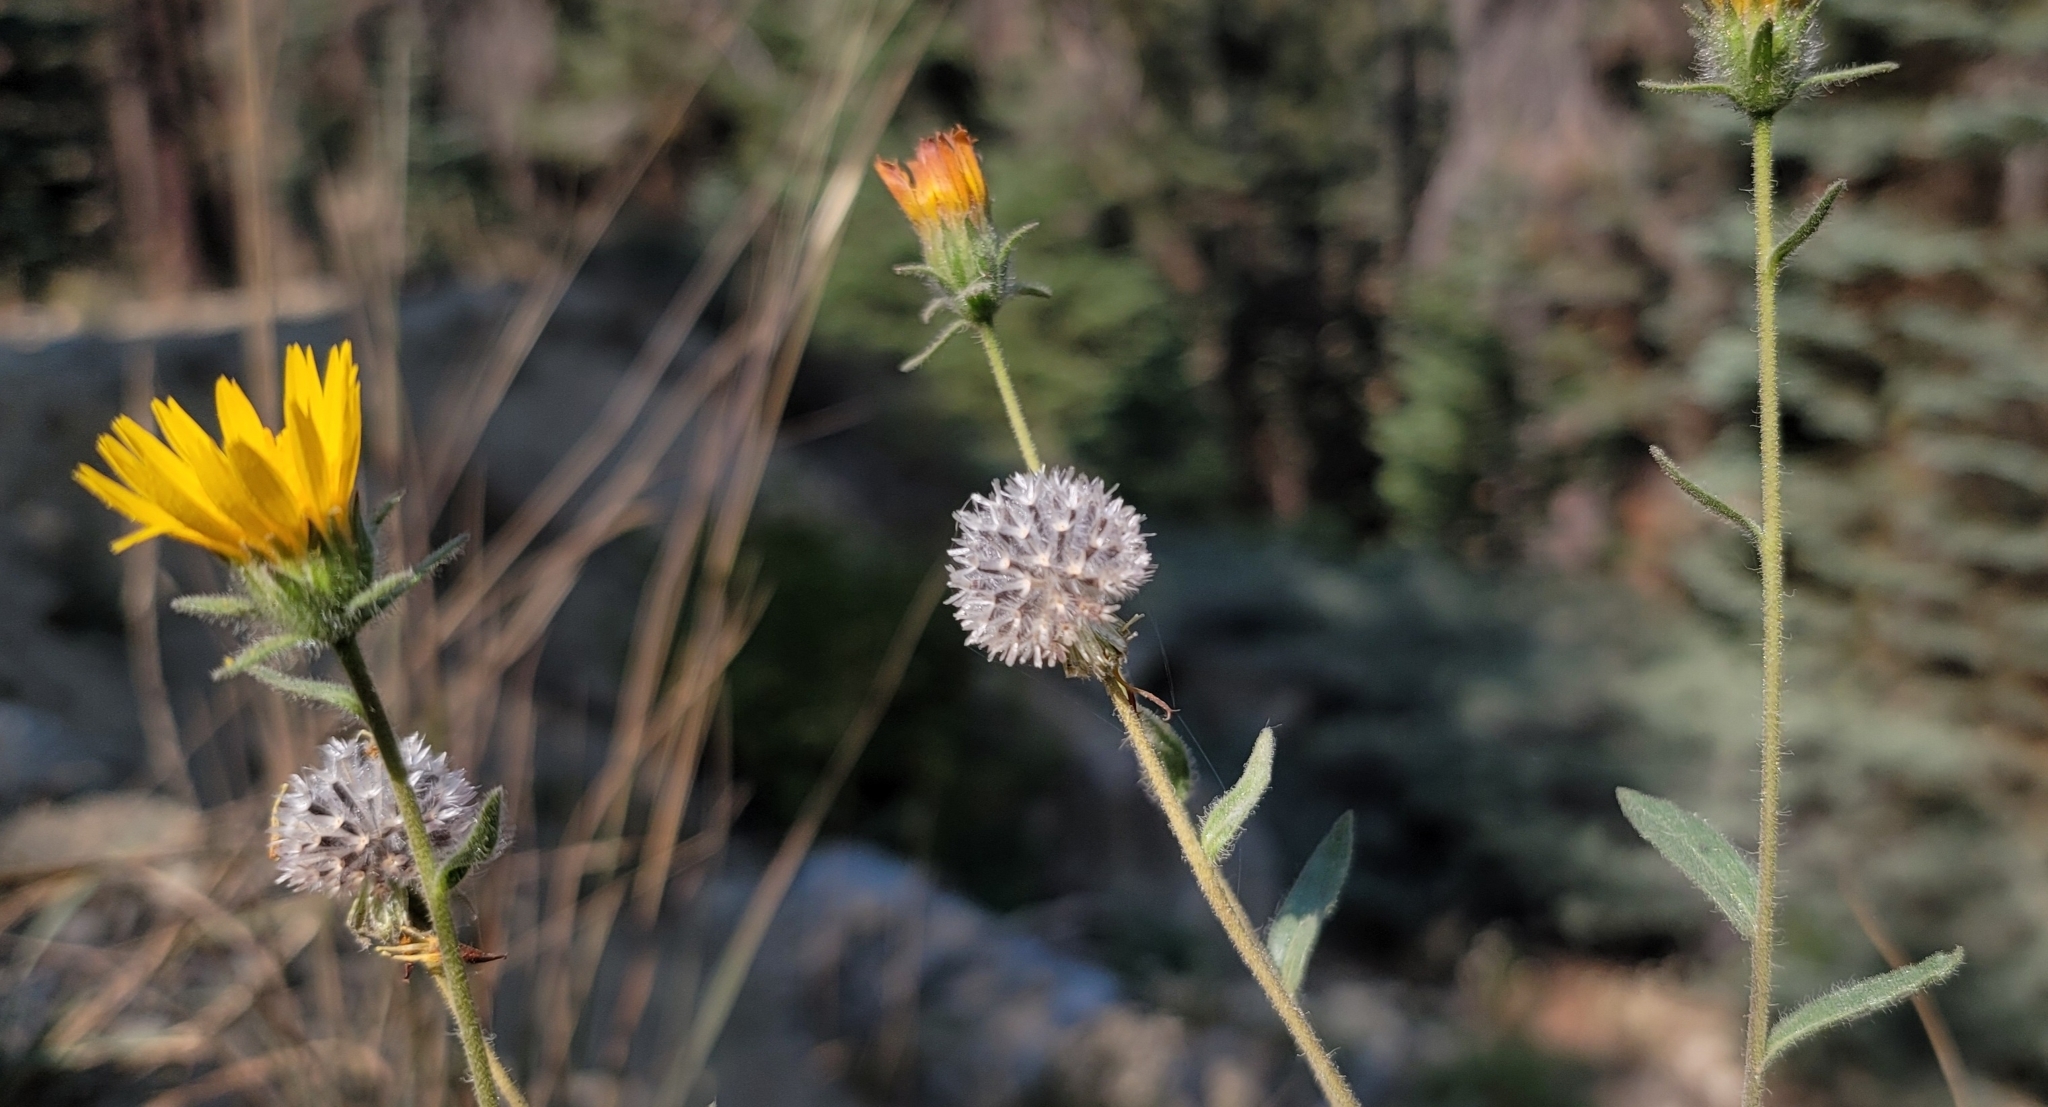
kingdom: Plantae
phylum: Tracheophyta
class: Magnoliopsida
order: Asterales
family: Asteraceae
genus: Hulsea
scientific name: Hulsea brevifolia
